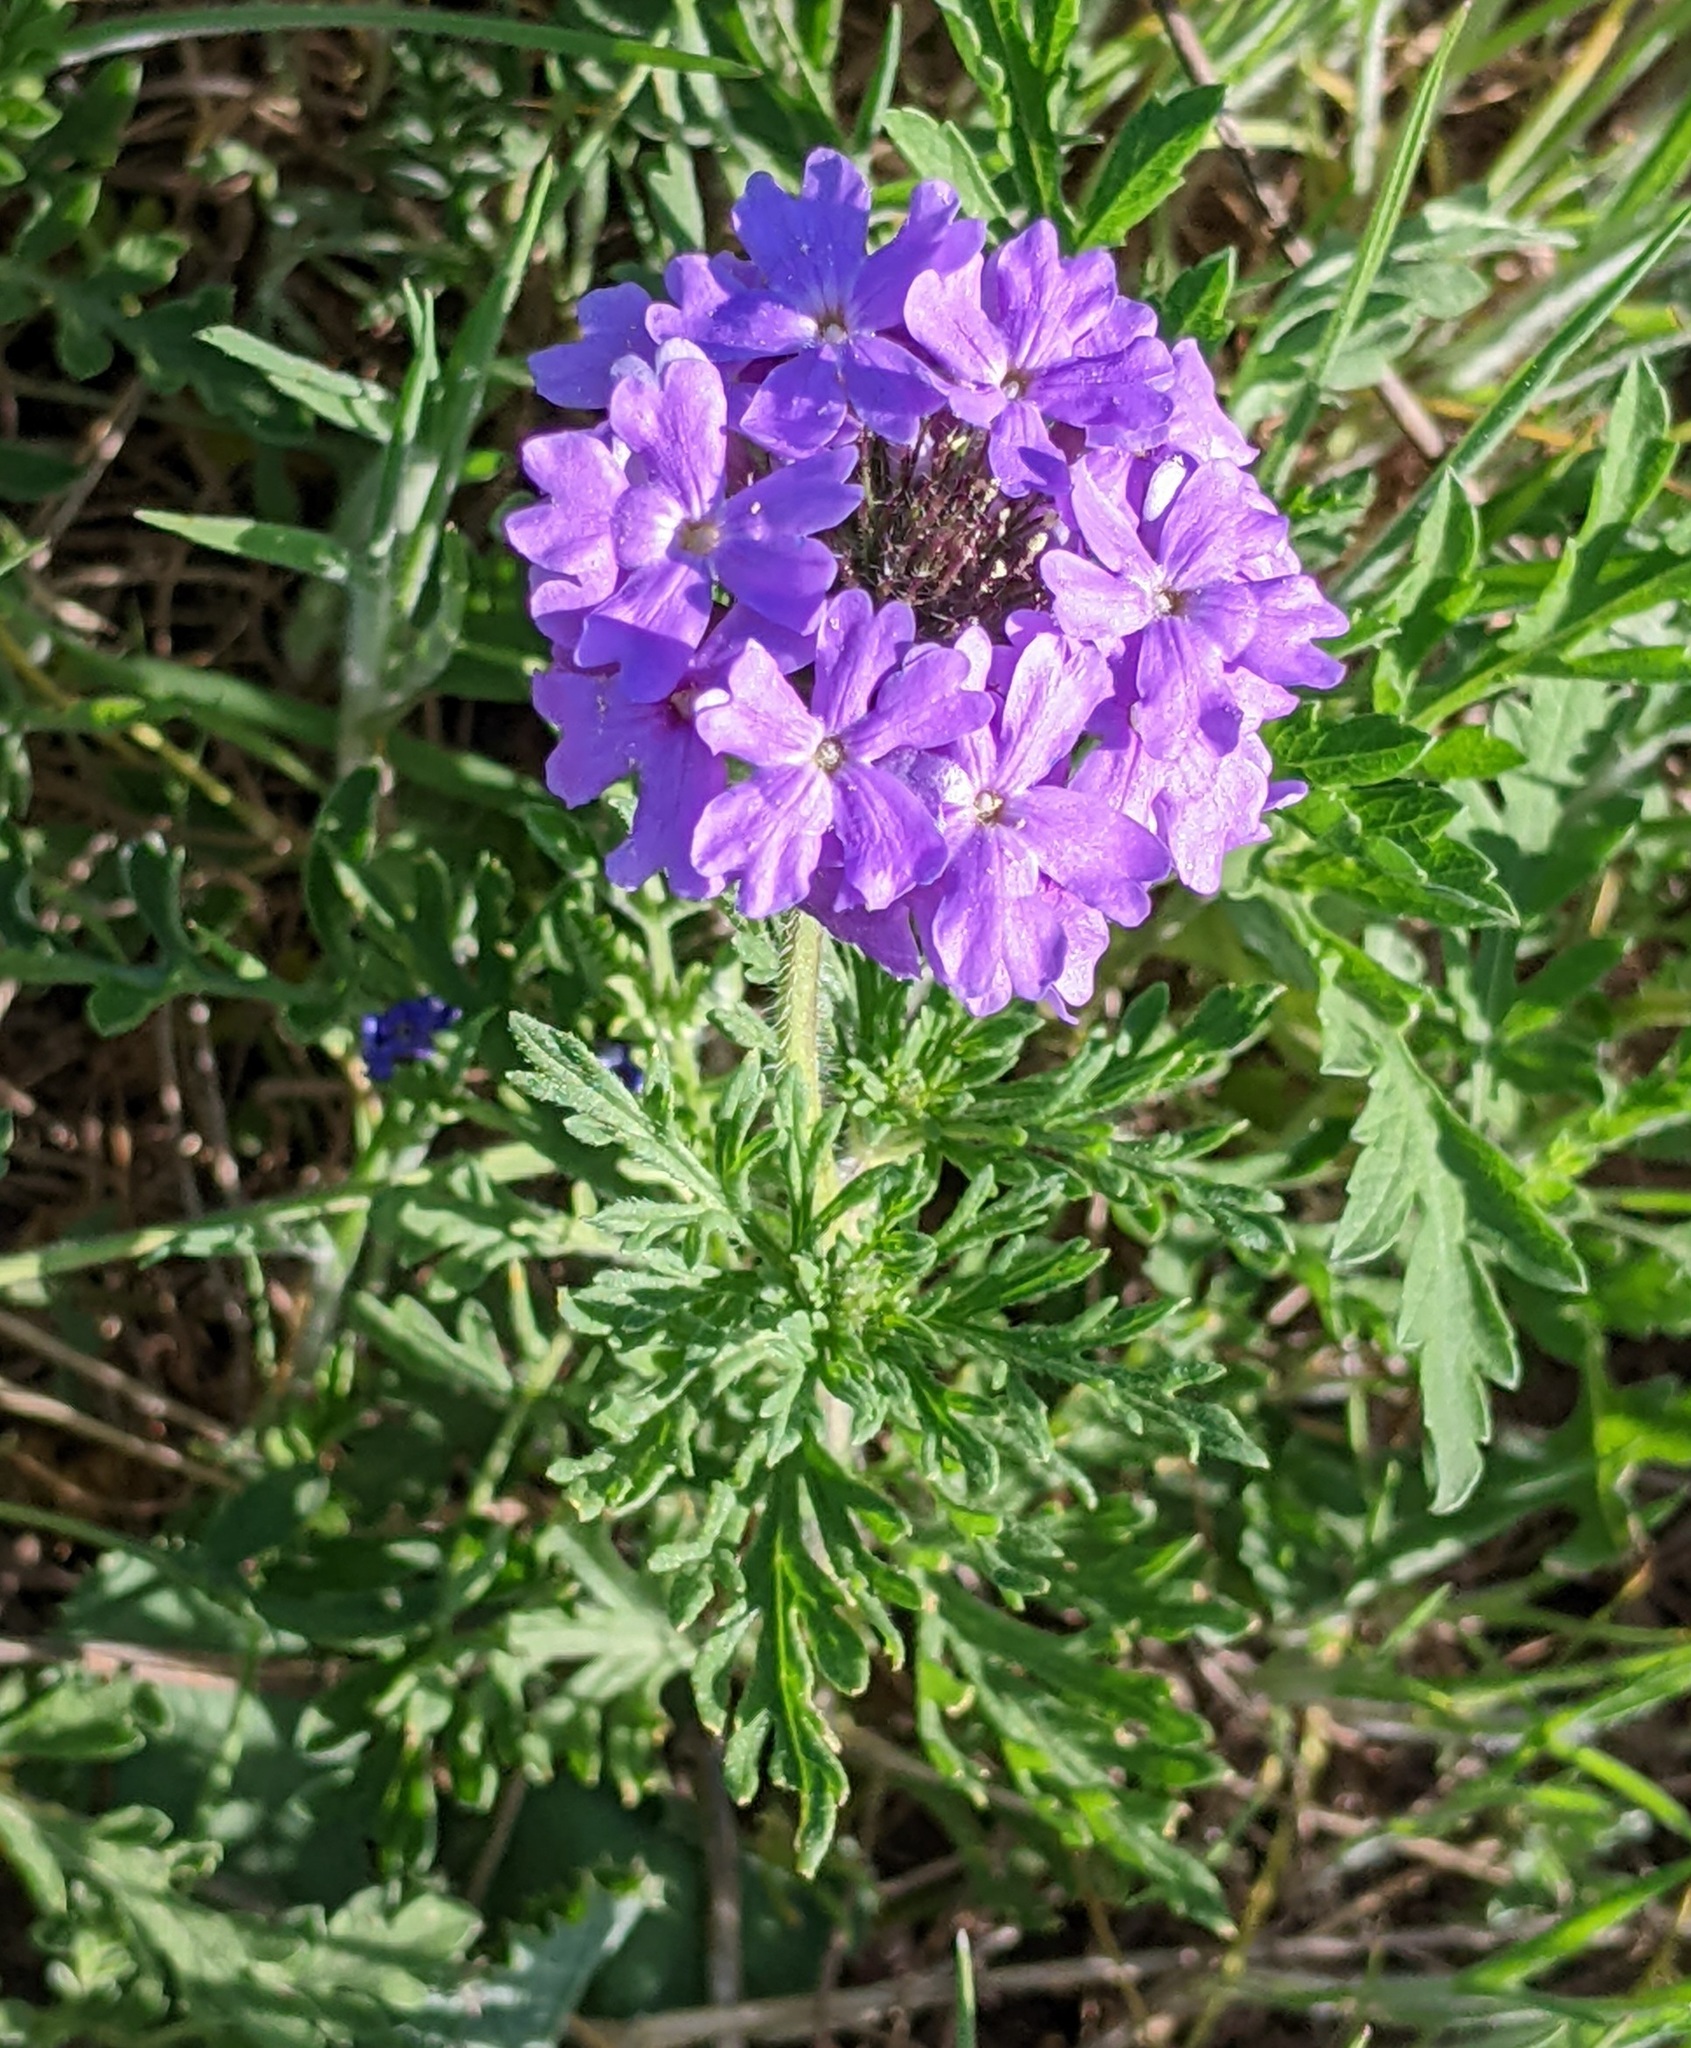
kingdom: Plantae
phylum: Tracheophyta
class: Magnoliopsida
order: Lamiales
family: Verbenaceae
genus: Verbena
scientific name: Verbena bipinnatifida
